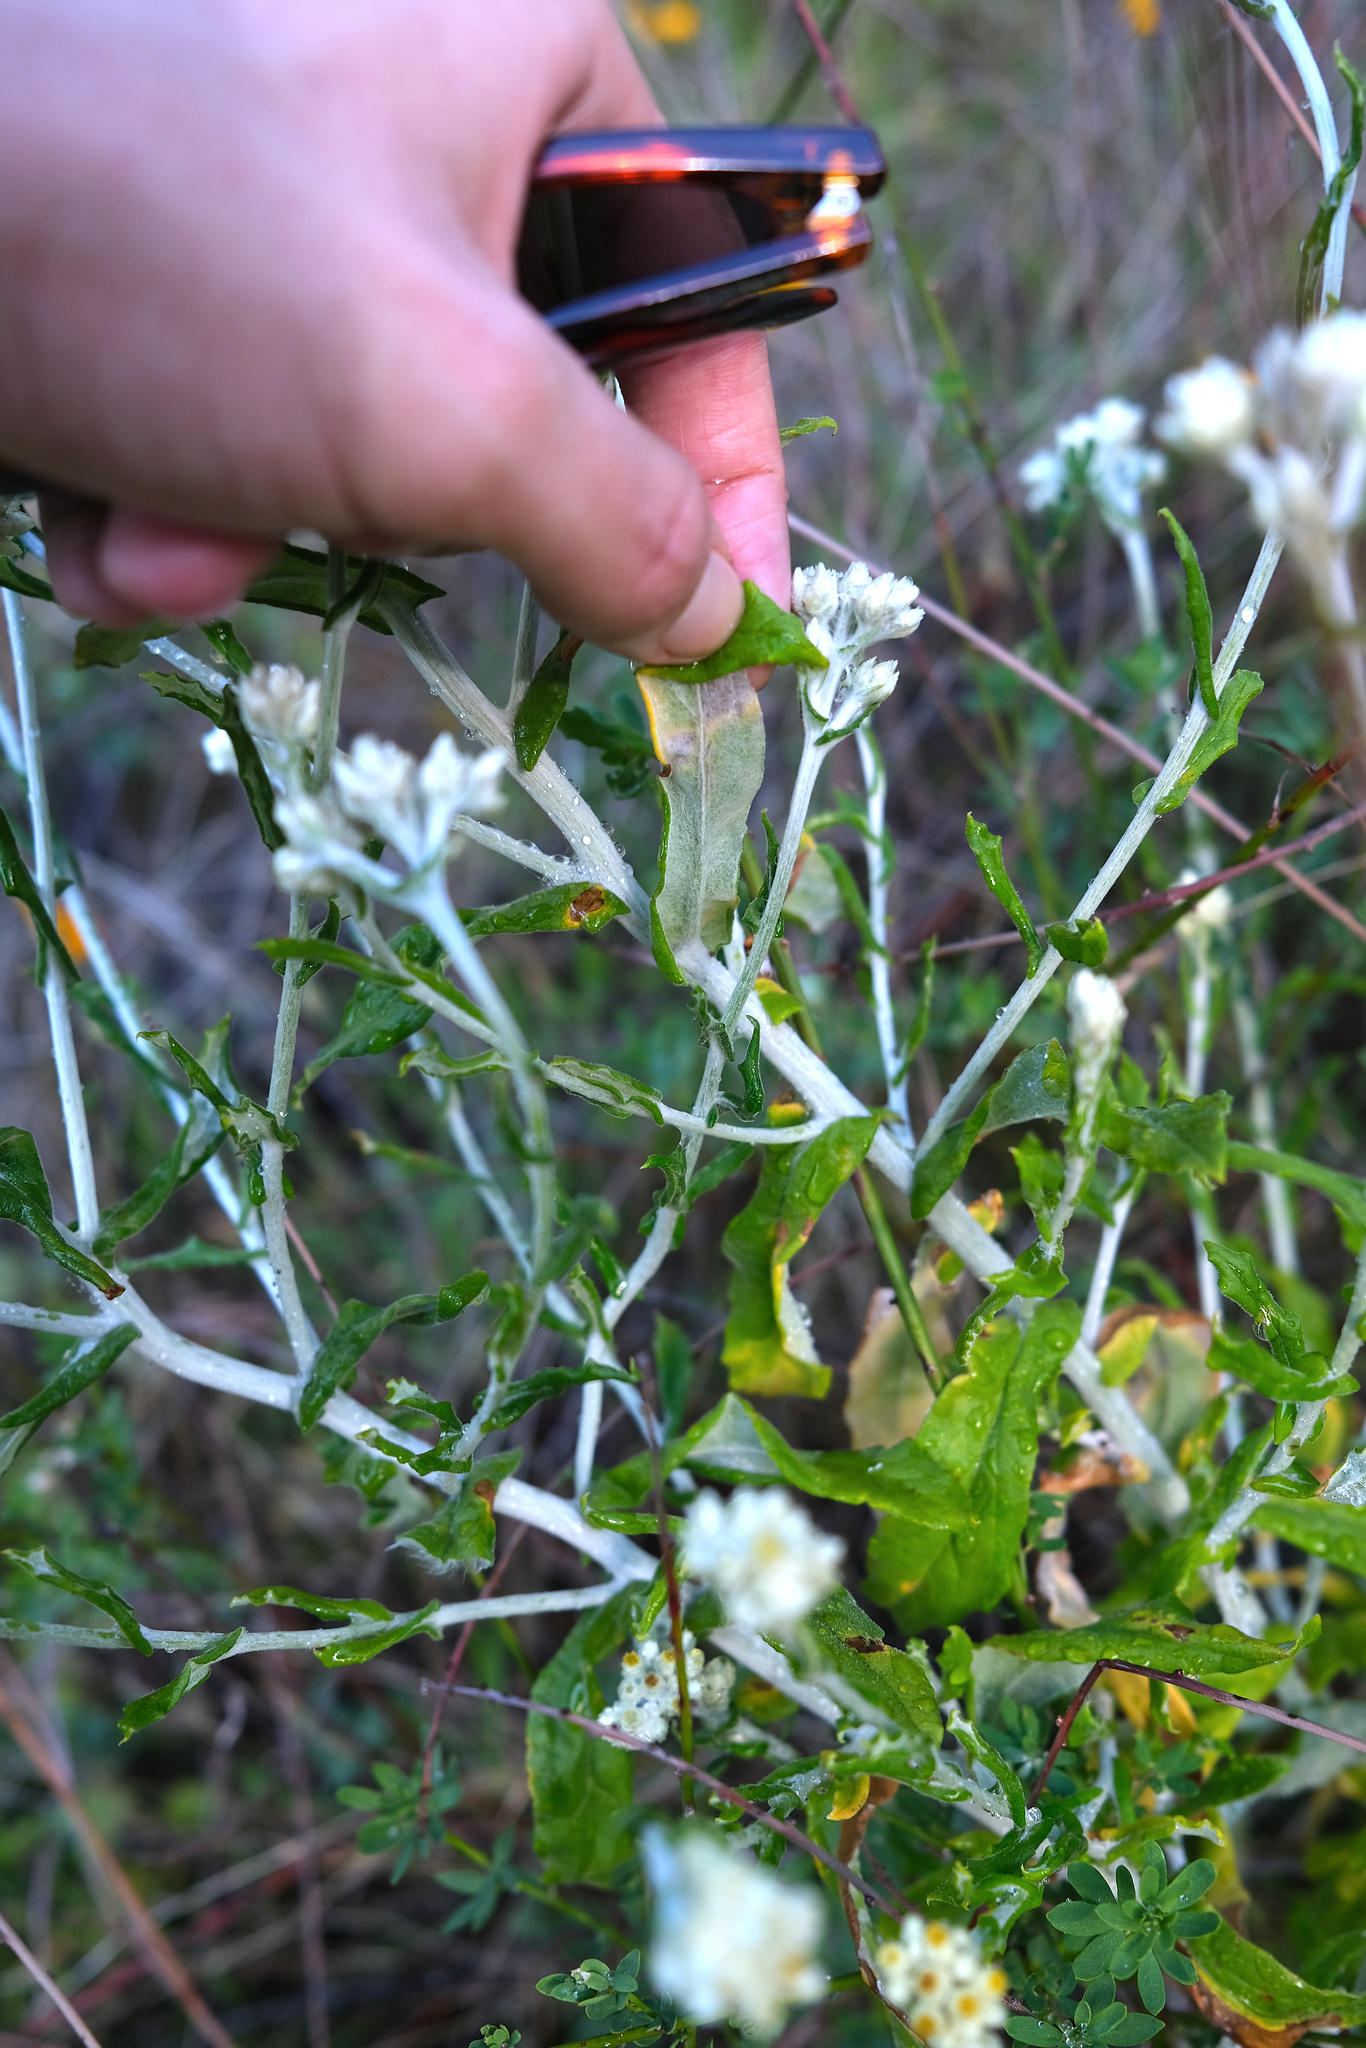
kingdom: Plantae
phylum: Tracheophyta
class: Magnoliopsida
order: Asterales
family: Asteraceae
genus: Pseudognaphalium
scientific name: Pseudognaphalium biolettii
